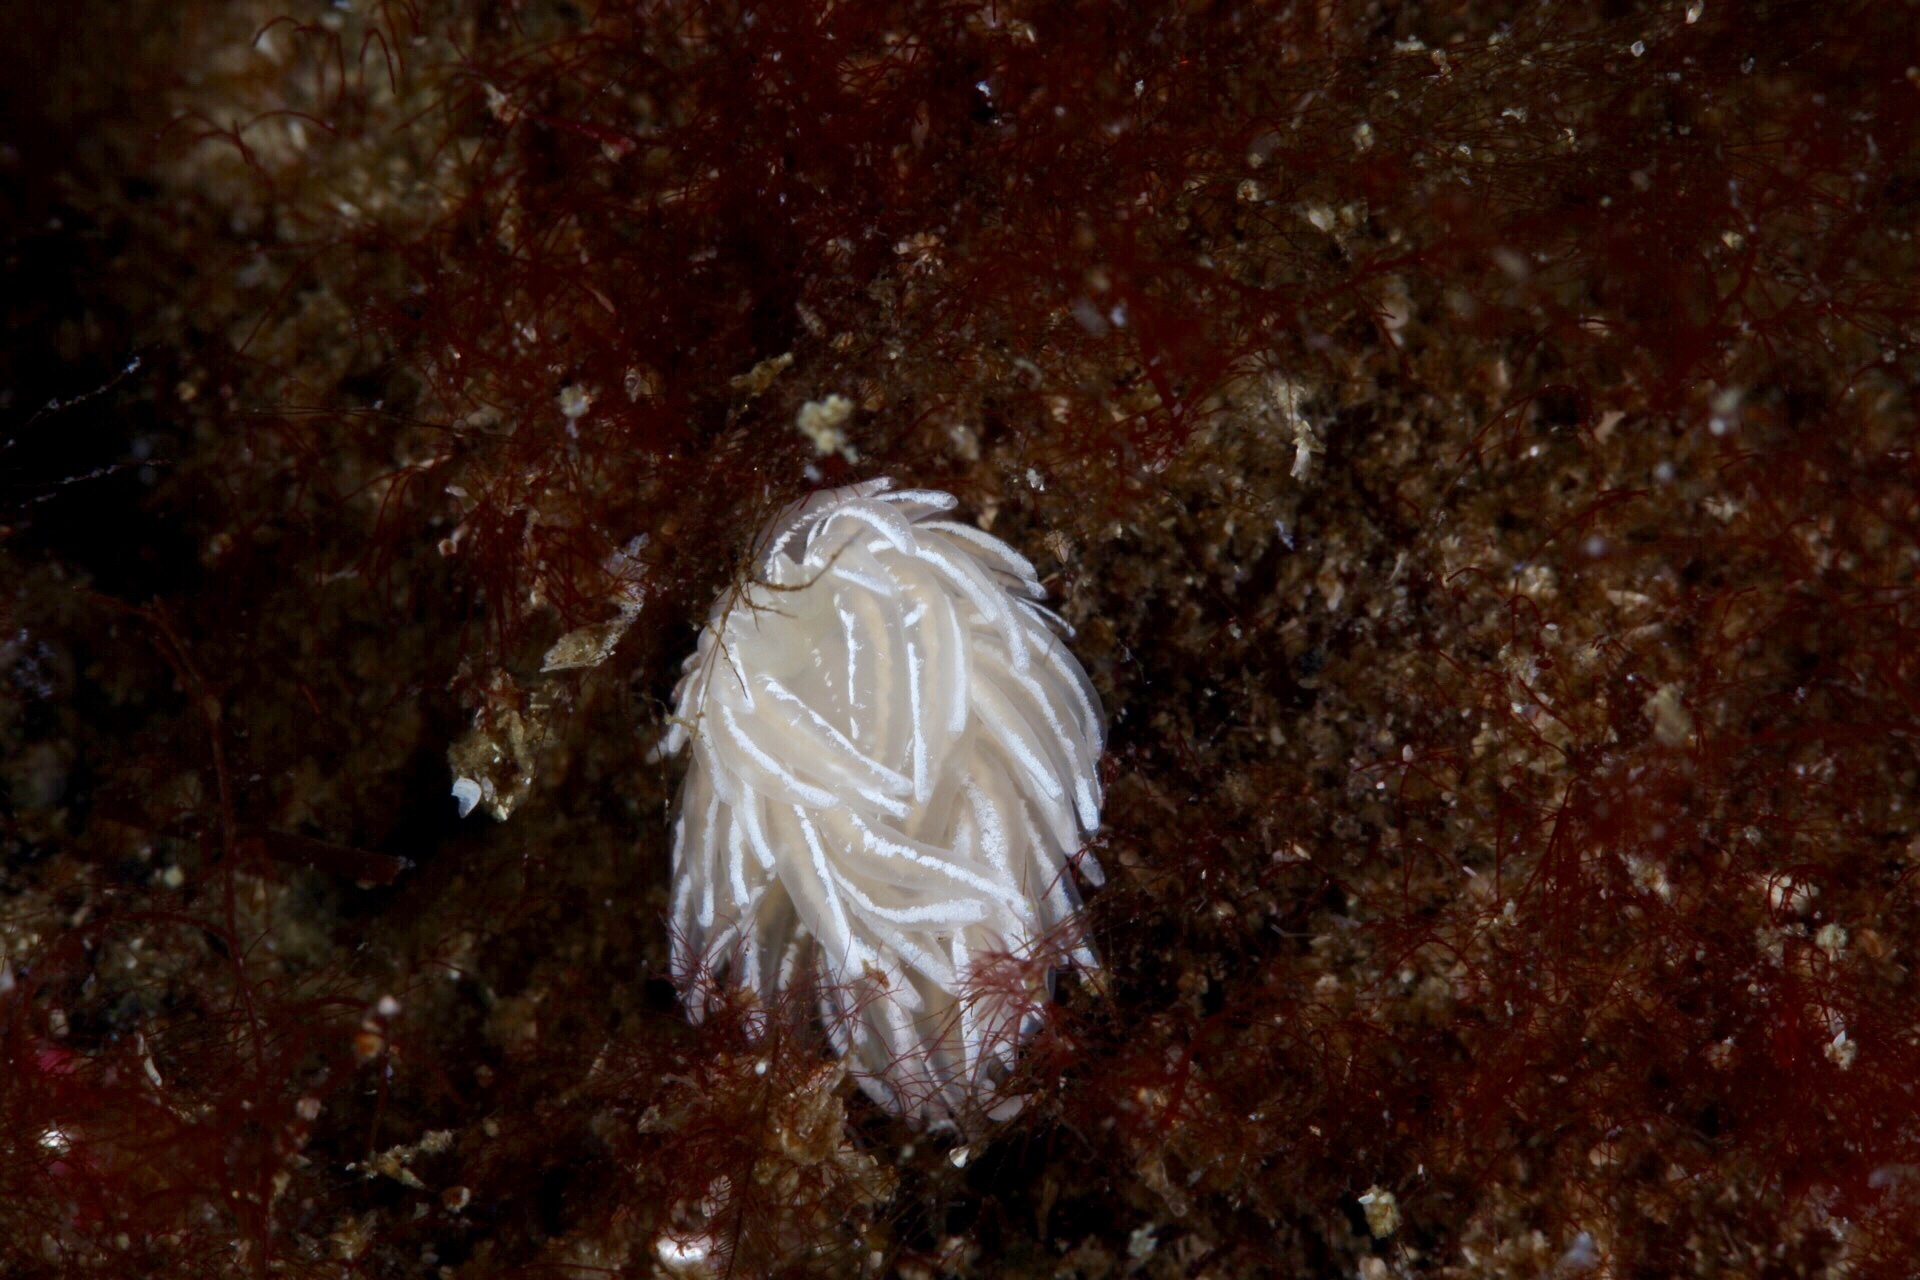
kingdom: Animalia
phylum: Mollusca
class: Gastropoda
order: Nudibranchia
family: Facelinidae
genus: Favorinus
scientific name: Favorinus blianus
